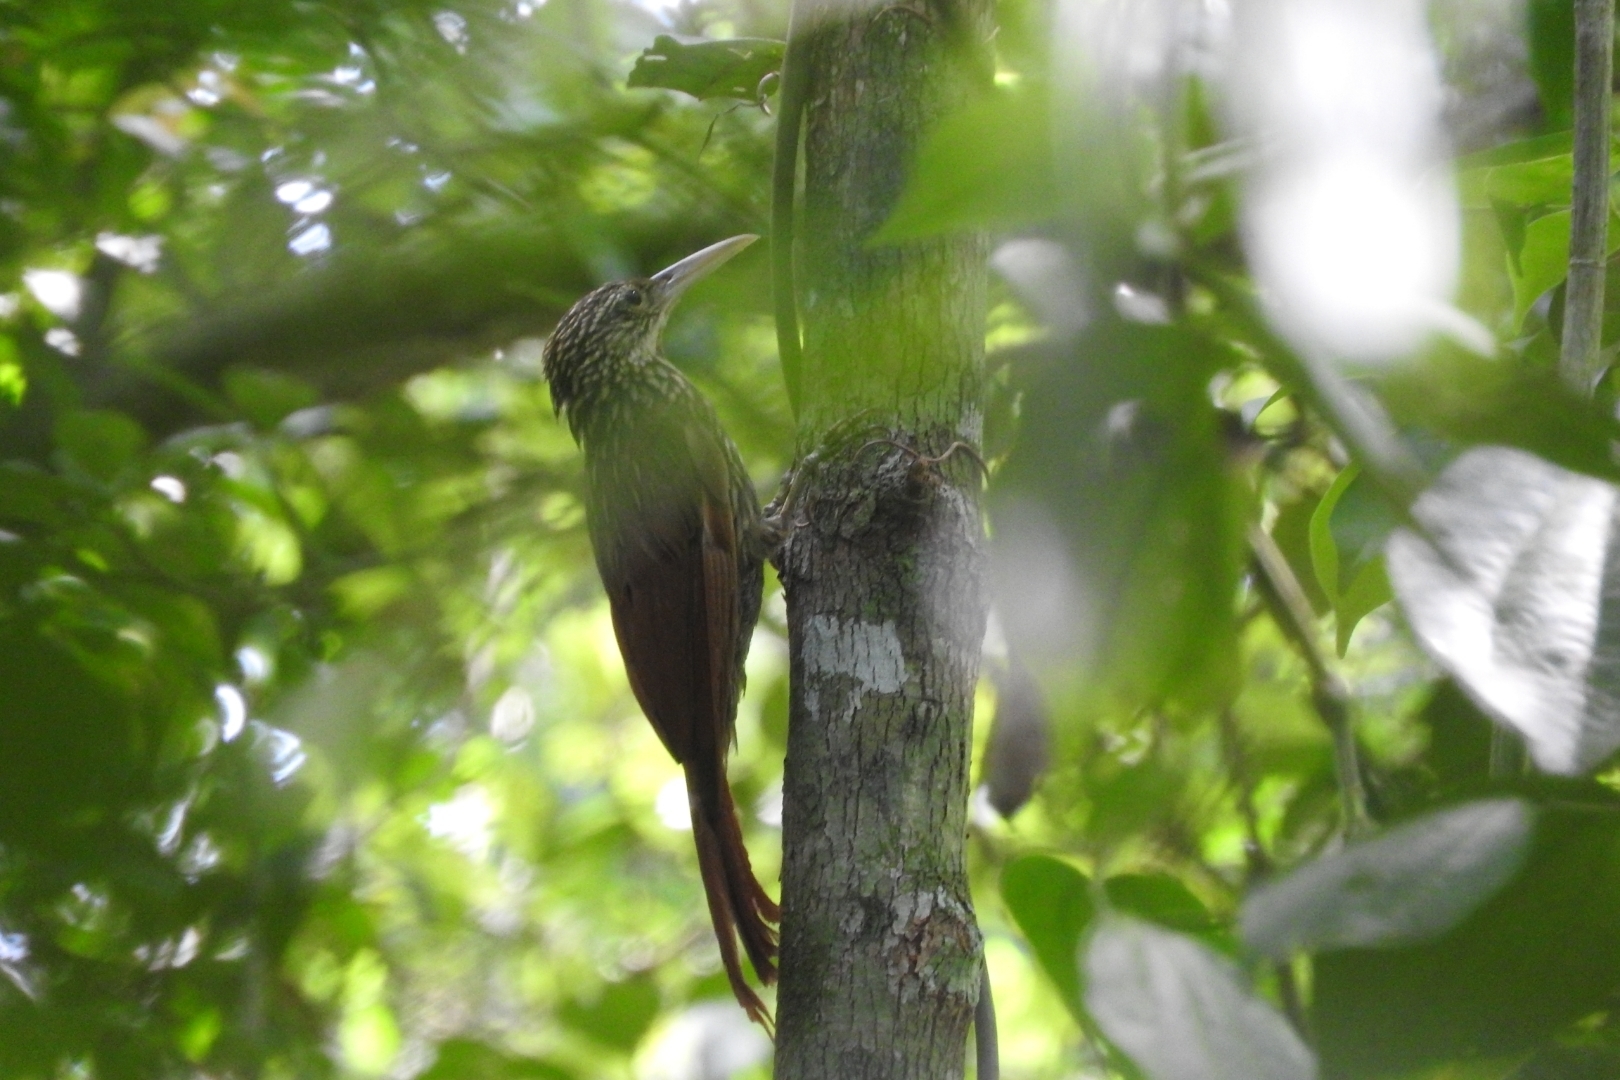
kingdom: Animalia
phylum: Chordata
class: Aves
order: Passeriformes
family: Furnariidae
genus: Xiphorhynchus
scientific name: Xiphorhynchus flavigaster
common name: Ivory-billed woodcreeper
